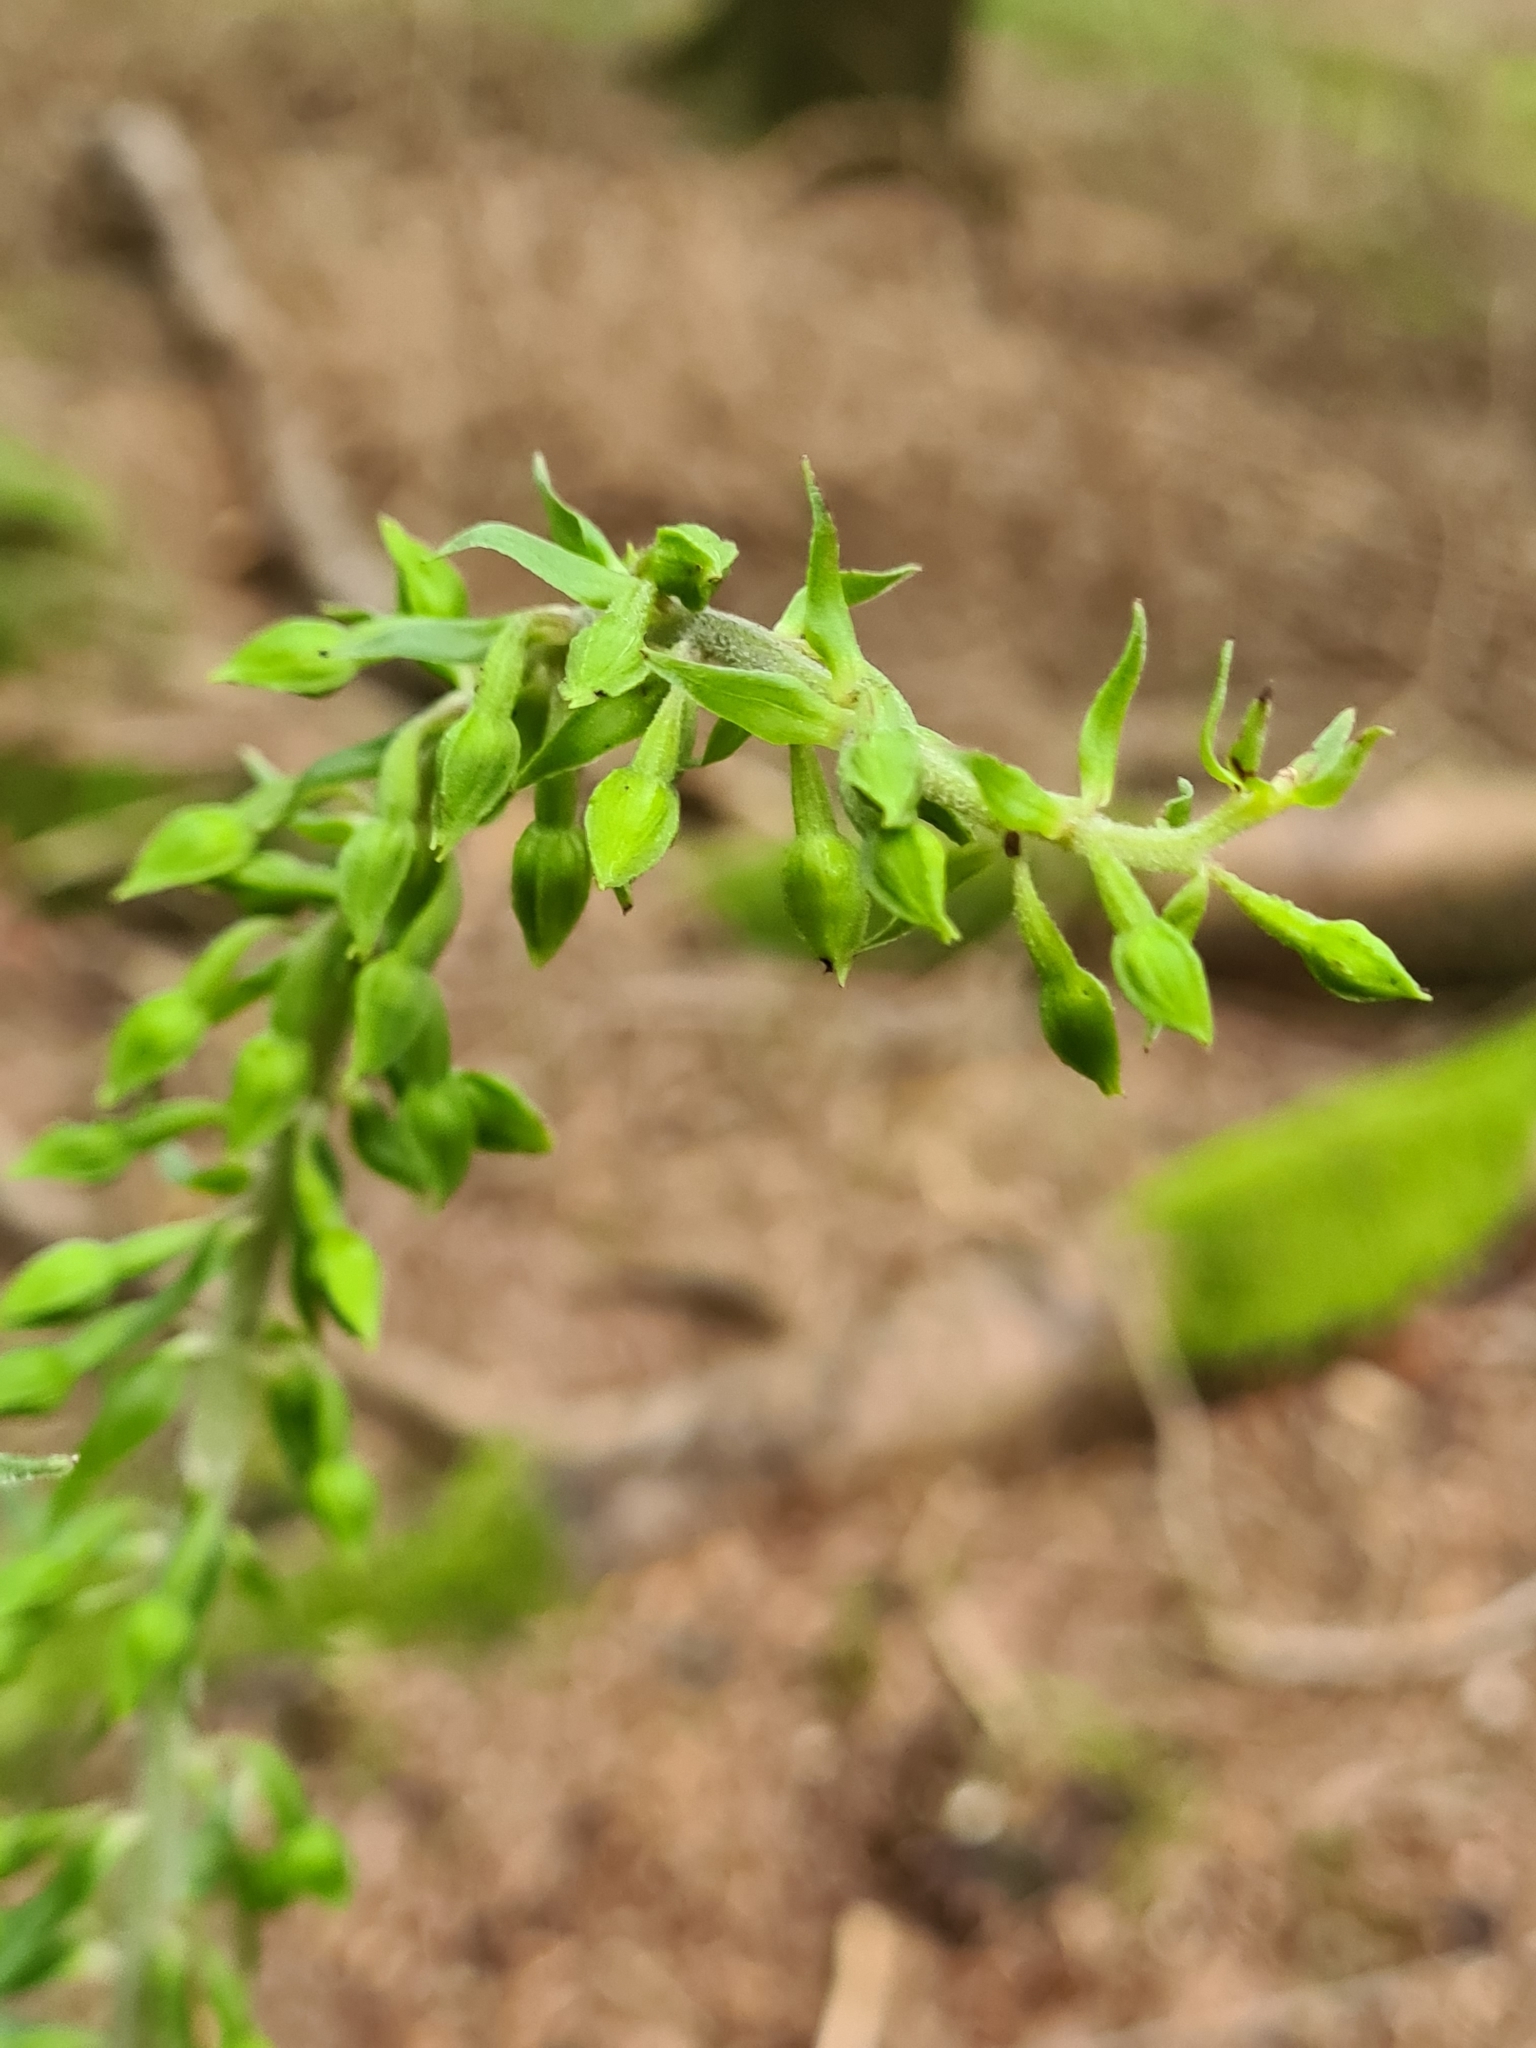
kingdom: Plantae
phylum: Tracheophyta
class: Liliopsida
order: Asparagales
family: Orchidaceae
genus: Epipactis
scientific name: Epipactis helleborine
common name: Broad-leaved helleborine
